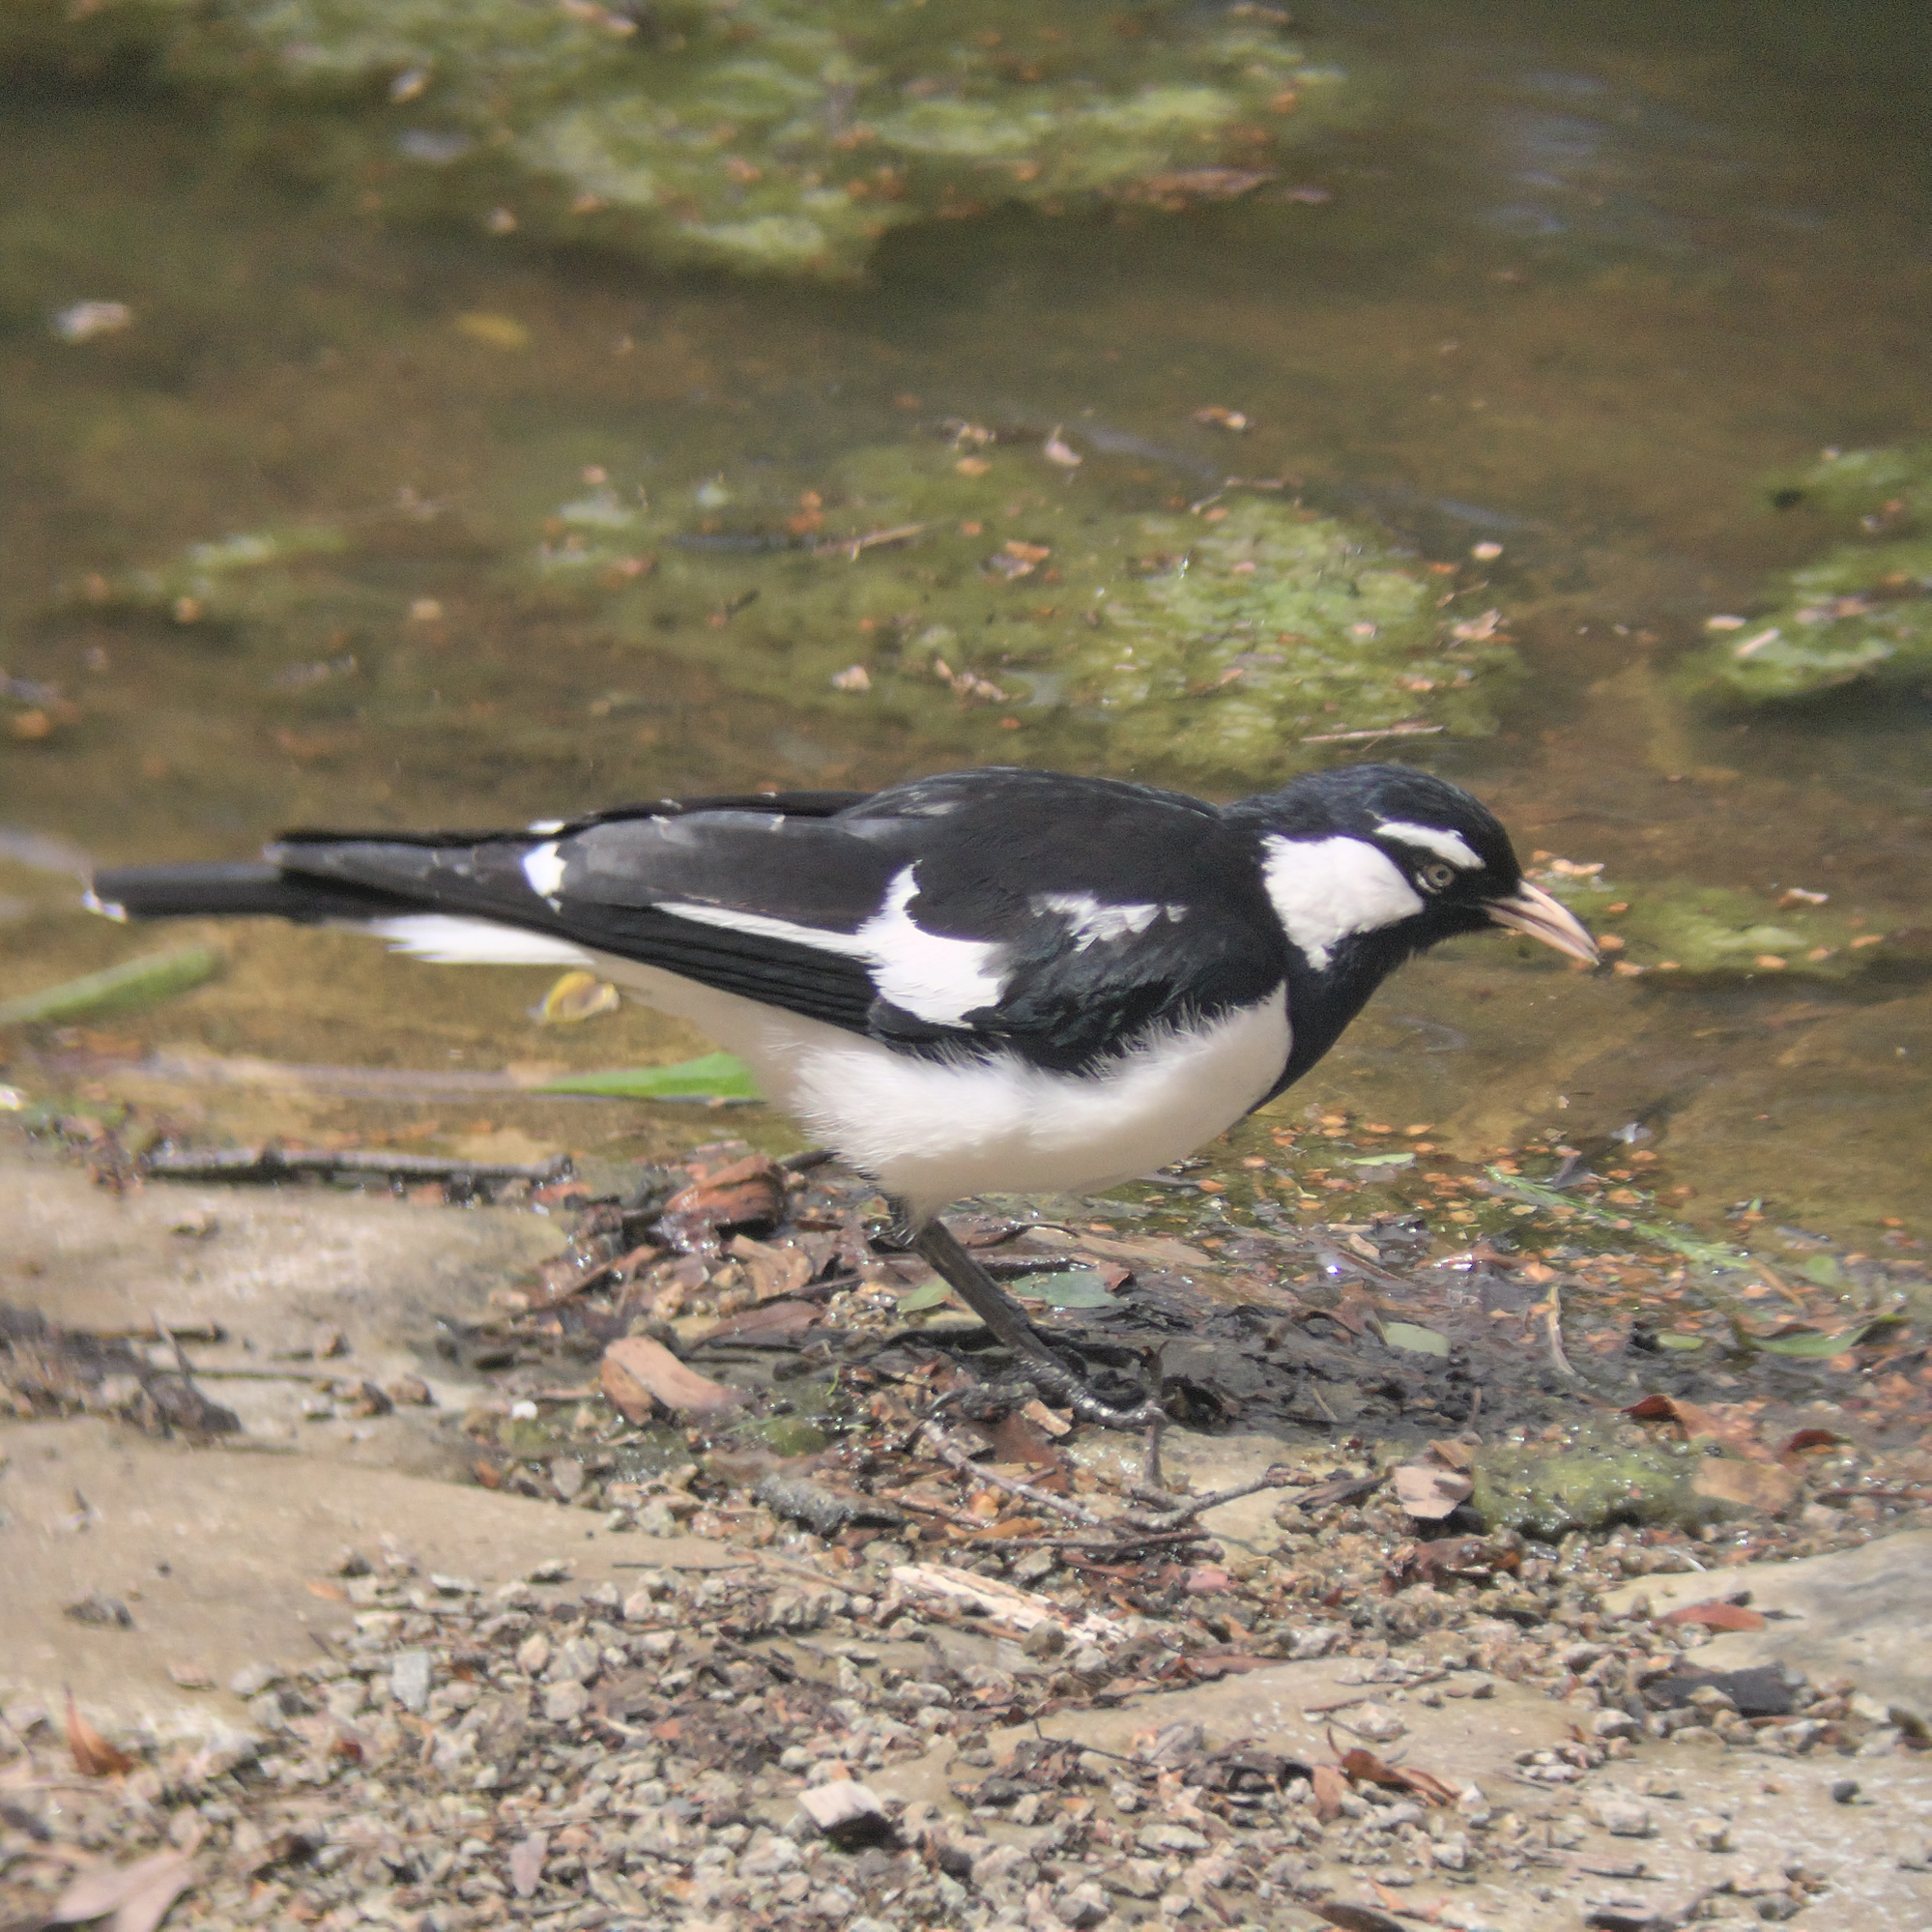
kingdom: Animalia
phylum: Chordata
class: Aves
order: Passeriformes
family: Monarchidae
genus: Grallina
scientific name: Grallina cyanoleuca
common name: Magpie-lark
